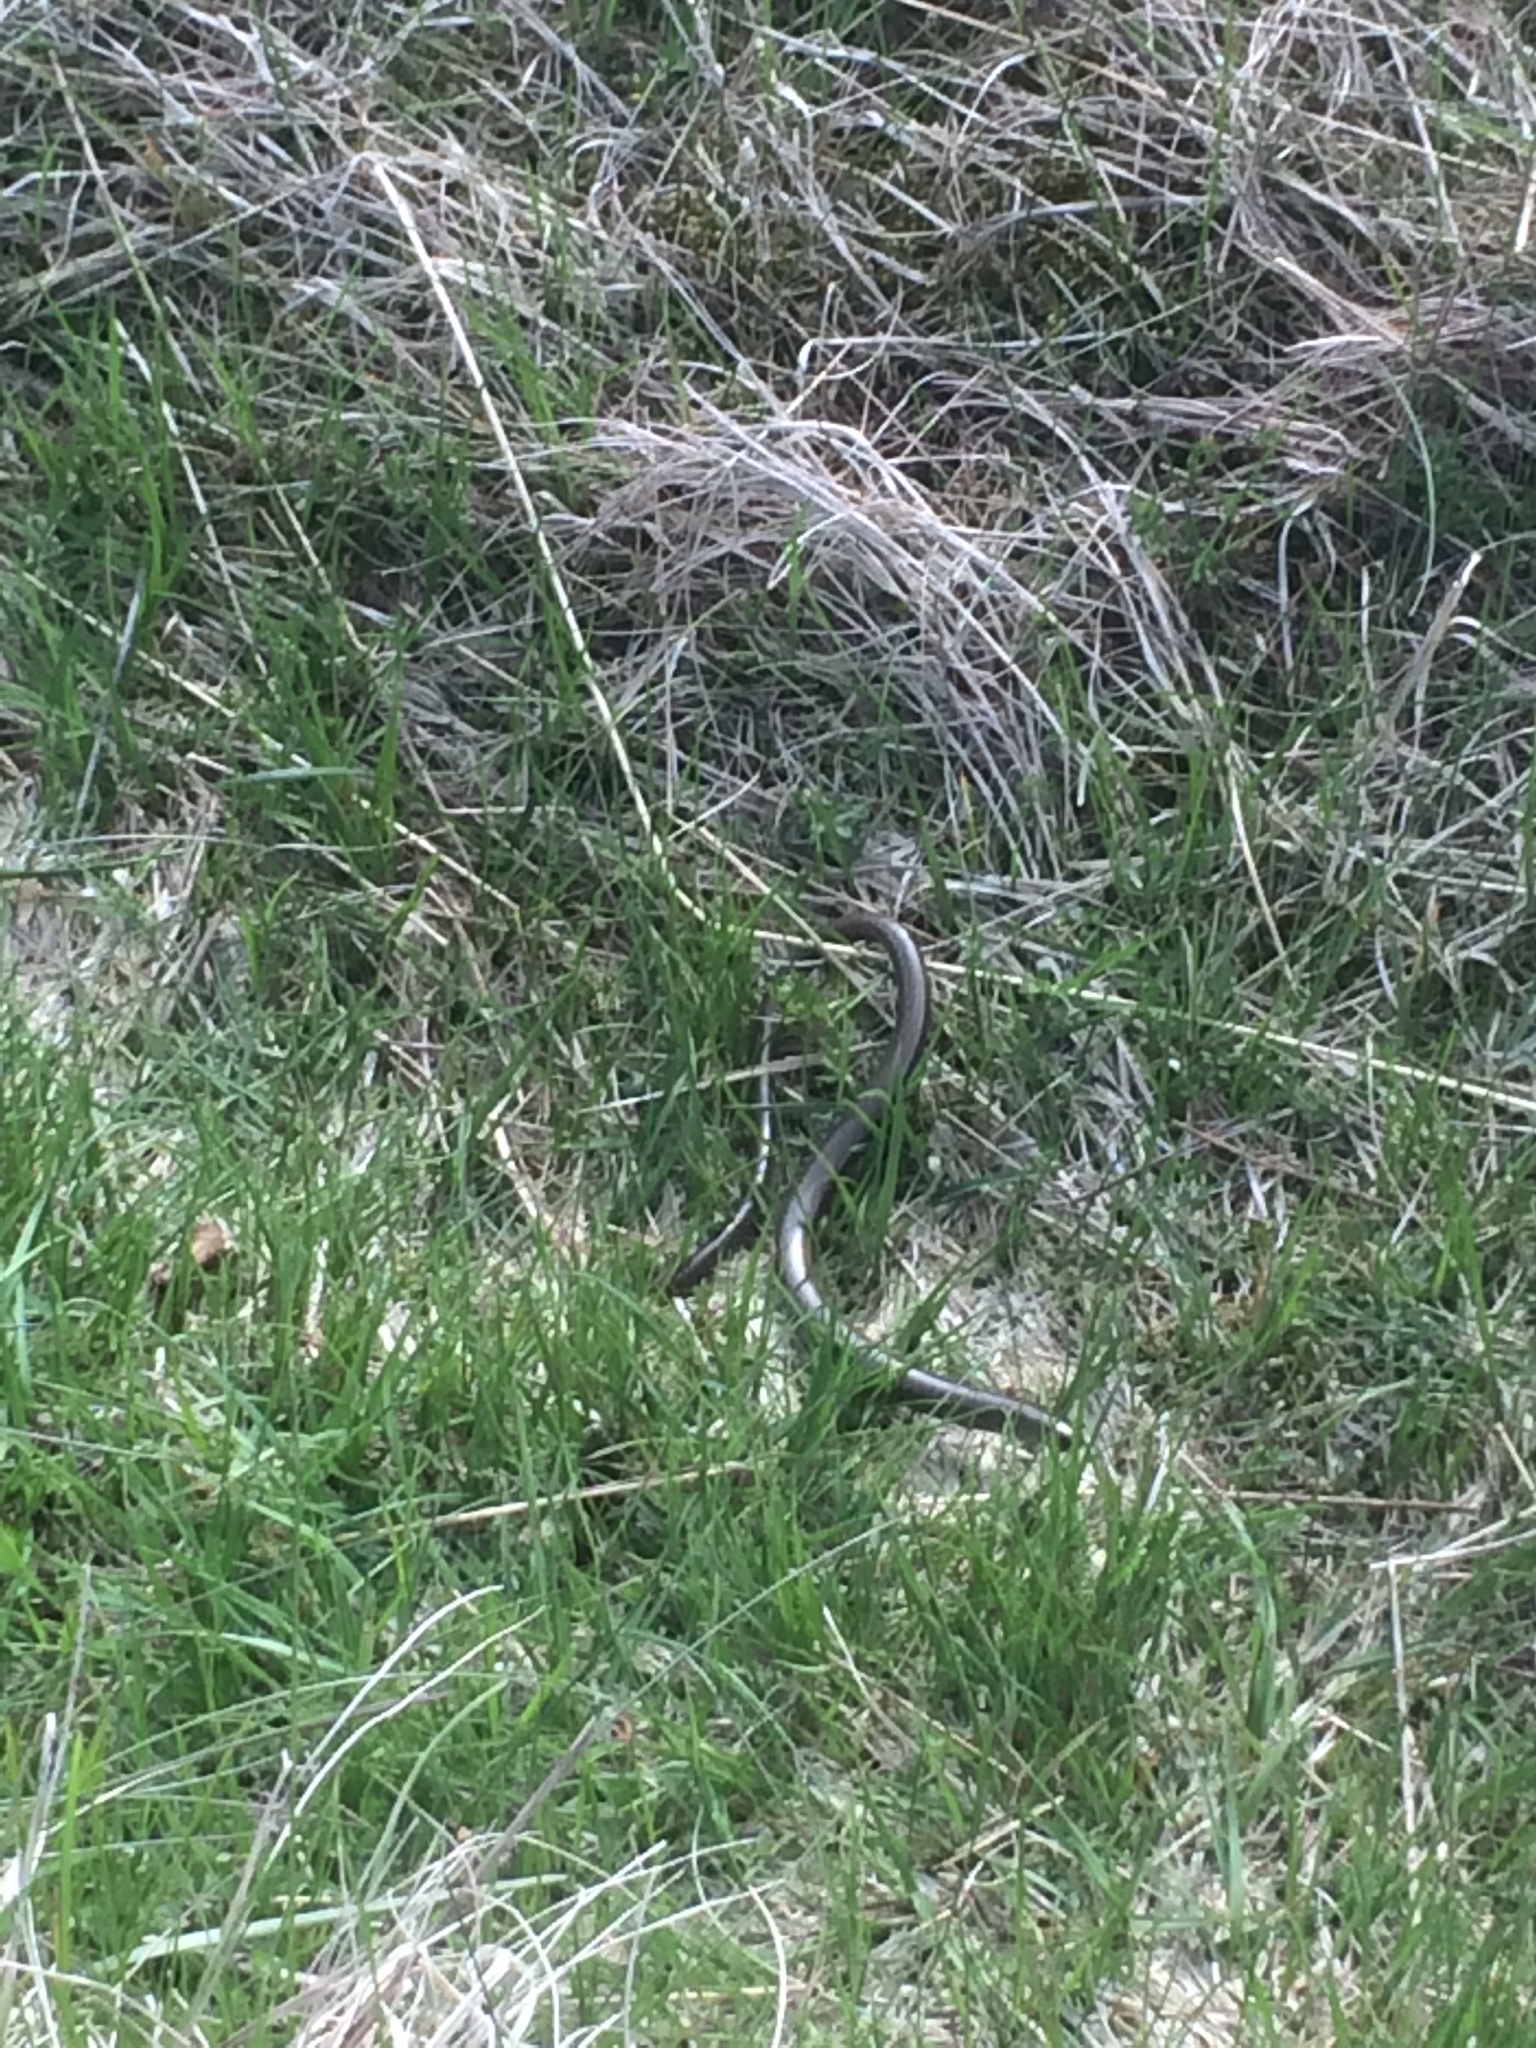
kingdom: Animalia
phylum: Chordata
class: Squamata
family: Anguidae
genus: Anguis
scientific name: Anguis fragilis
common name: Slow worm
